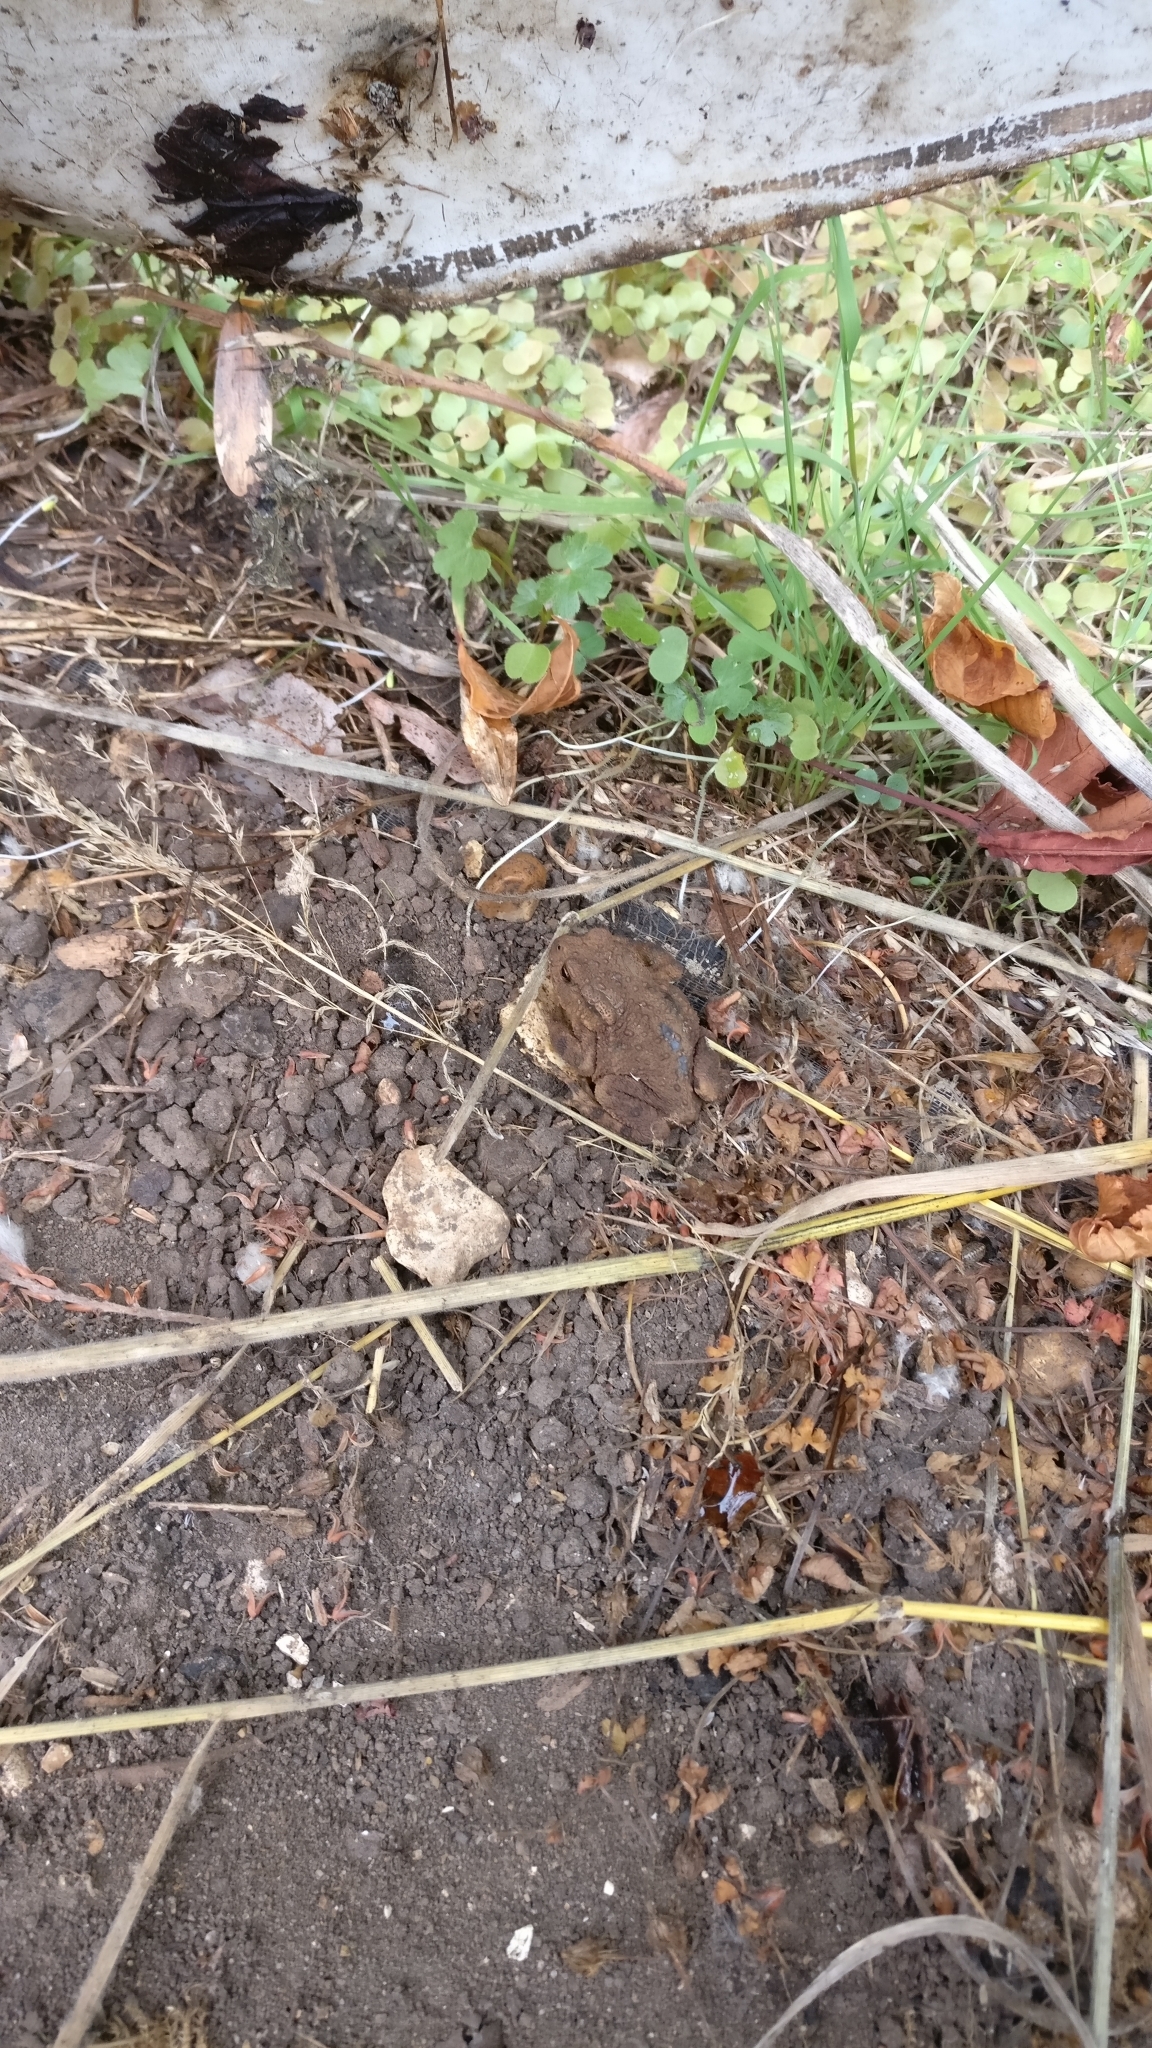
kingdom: Animalia
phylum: Chordata
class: Amphibia
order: Anura
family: Bufonidae
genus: Bufo
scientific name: Bufo bufo
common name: Common toad
